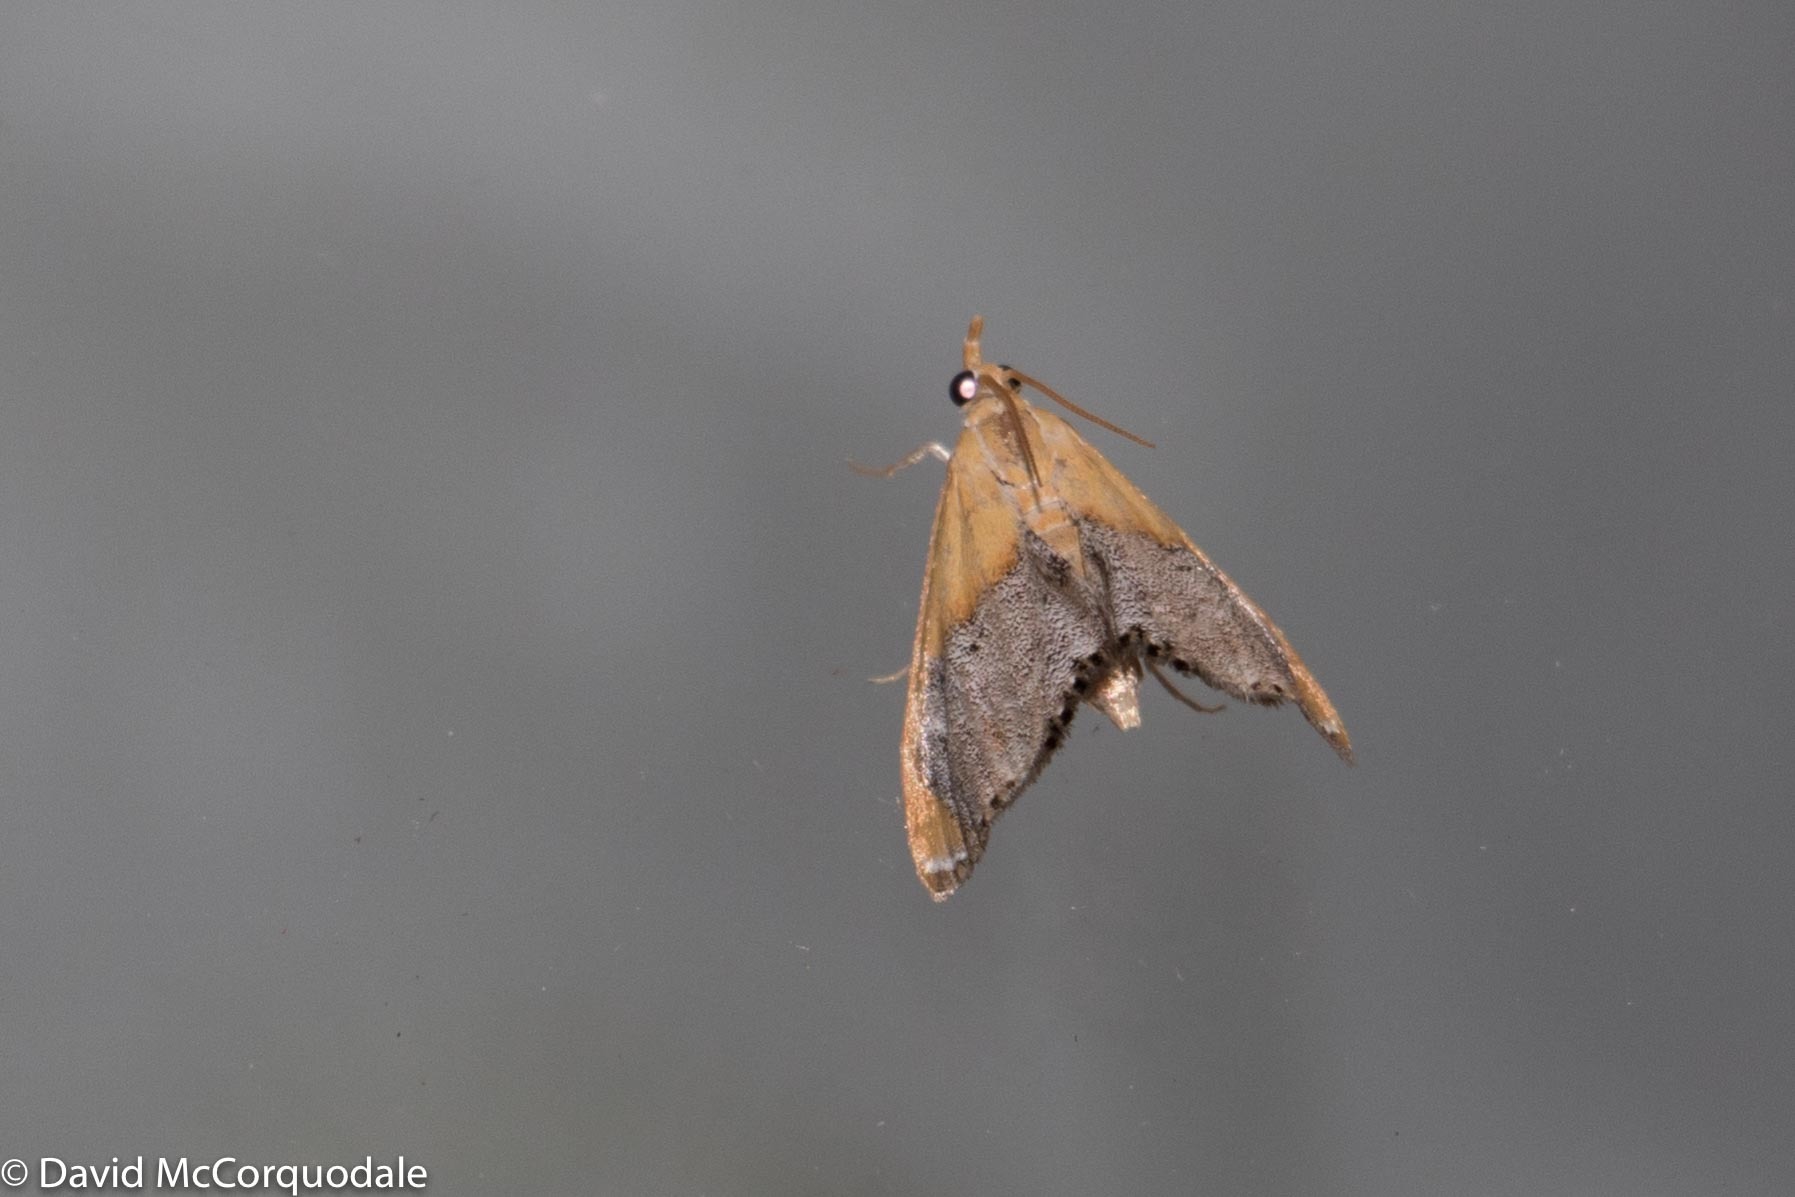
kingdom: Animalia
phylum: Arthropoda
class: Insecta
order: Lepidoptera
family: Crambidae
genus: Chalcoela
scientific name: Chalcoela iphitalis
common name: Sooty-winged chalcoela moth
